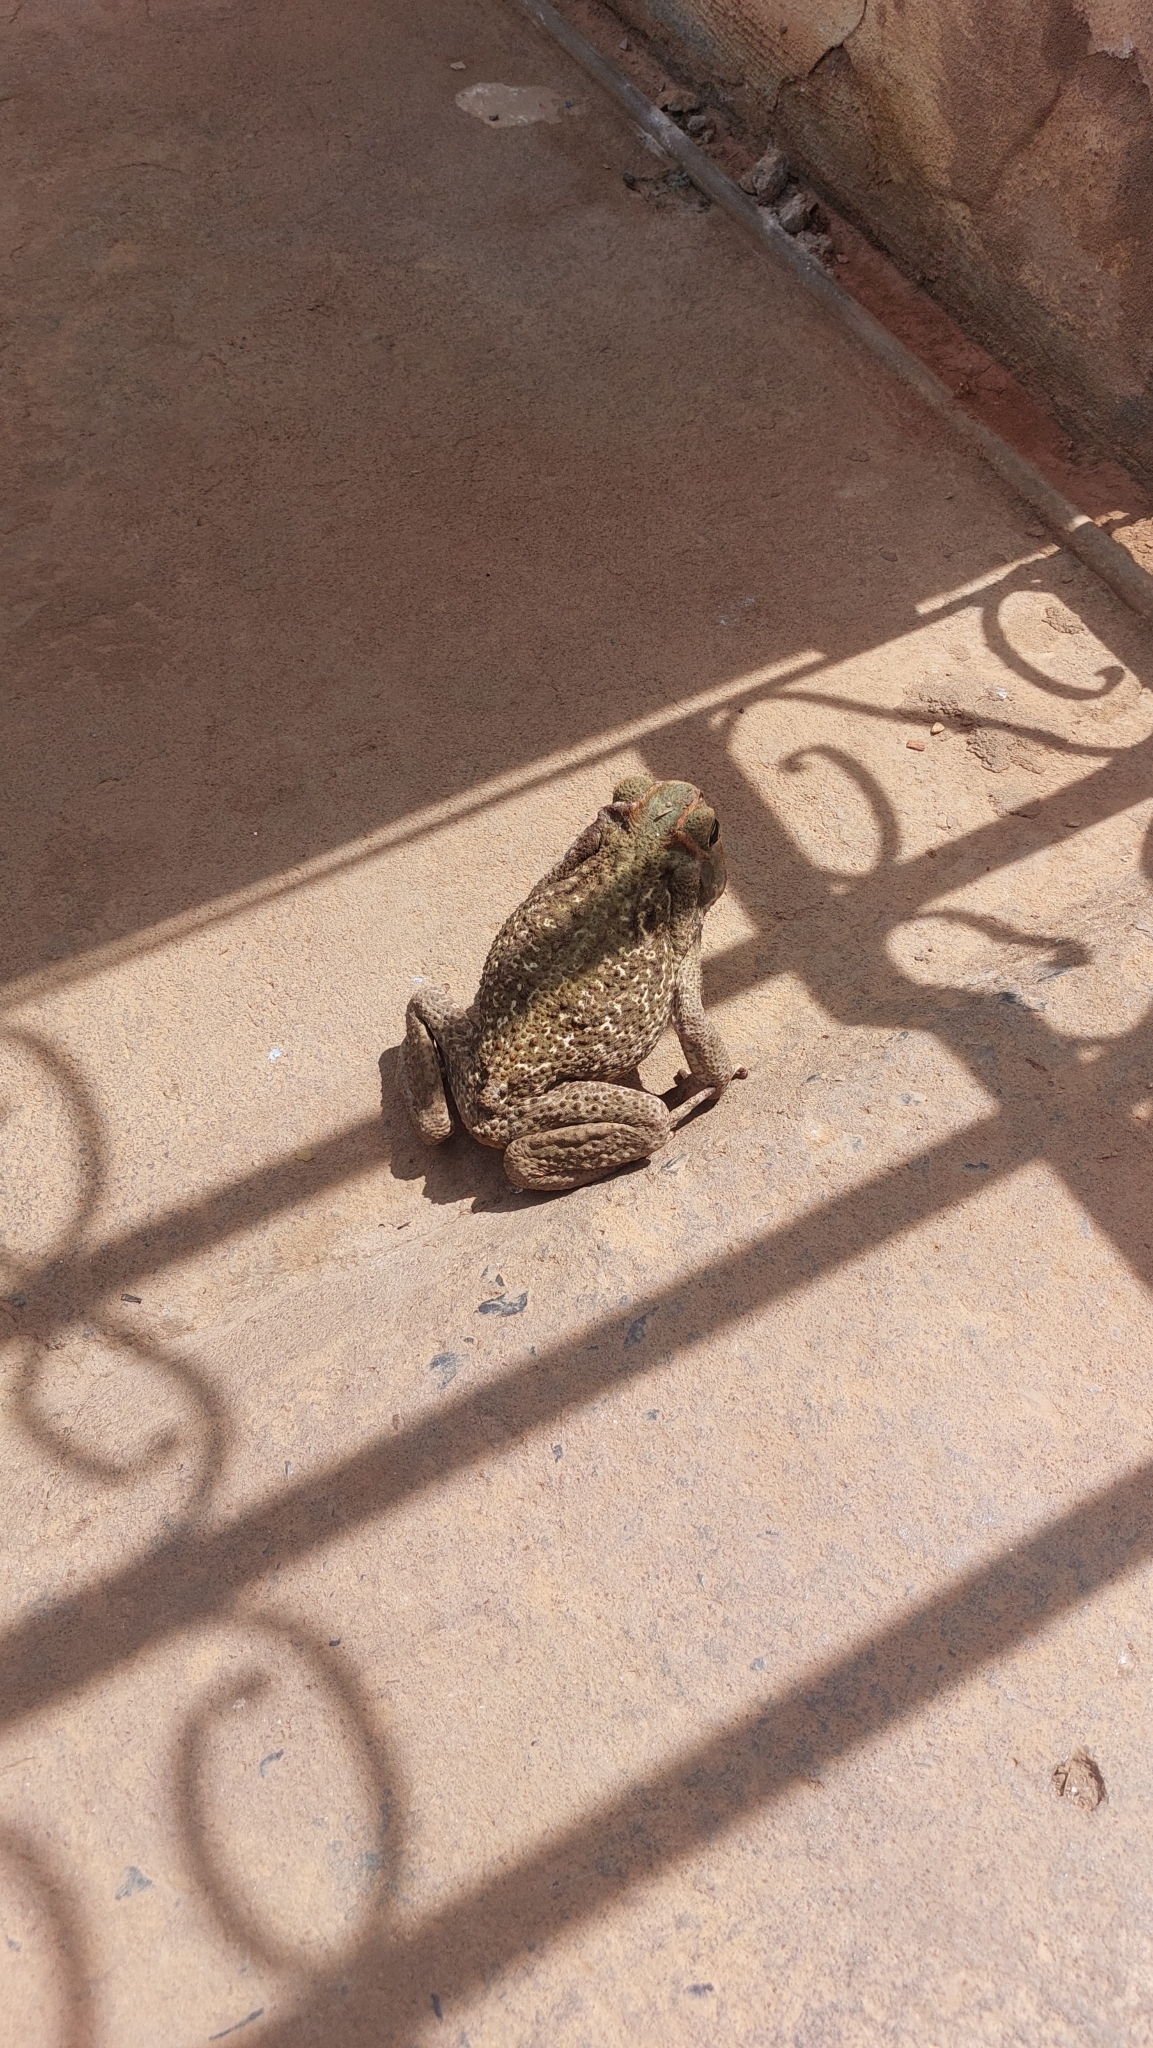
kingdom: Animalia
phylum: Chordata
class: Amphibia
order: Anura
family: Bufonidae
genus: Rhinella
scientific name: Rhinella diptycha
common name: Cope's toad
